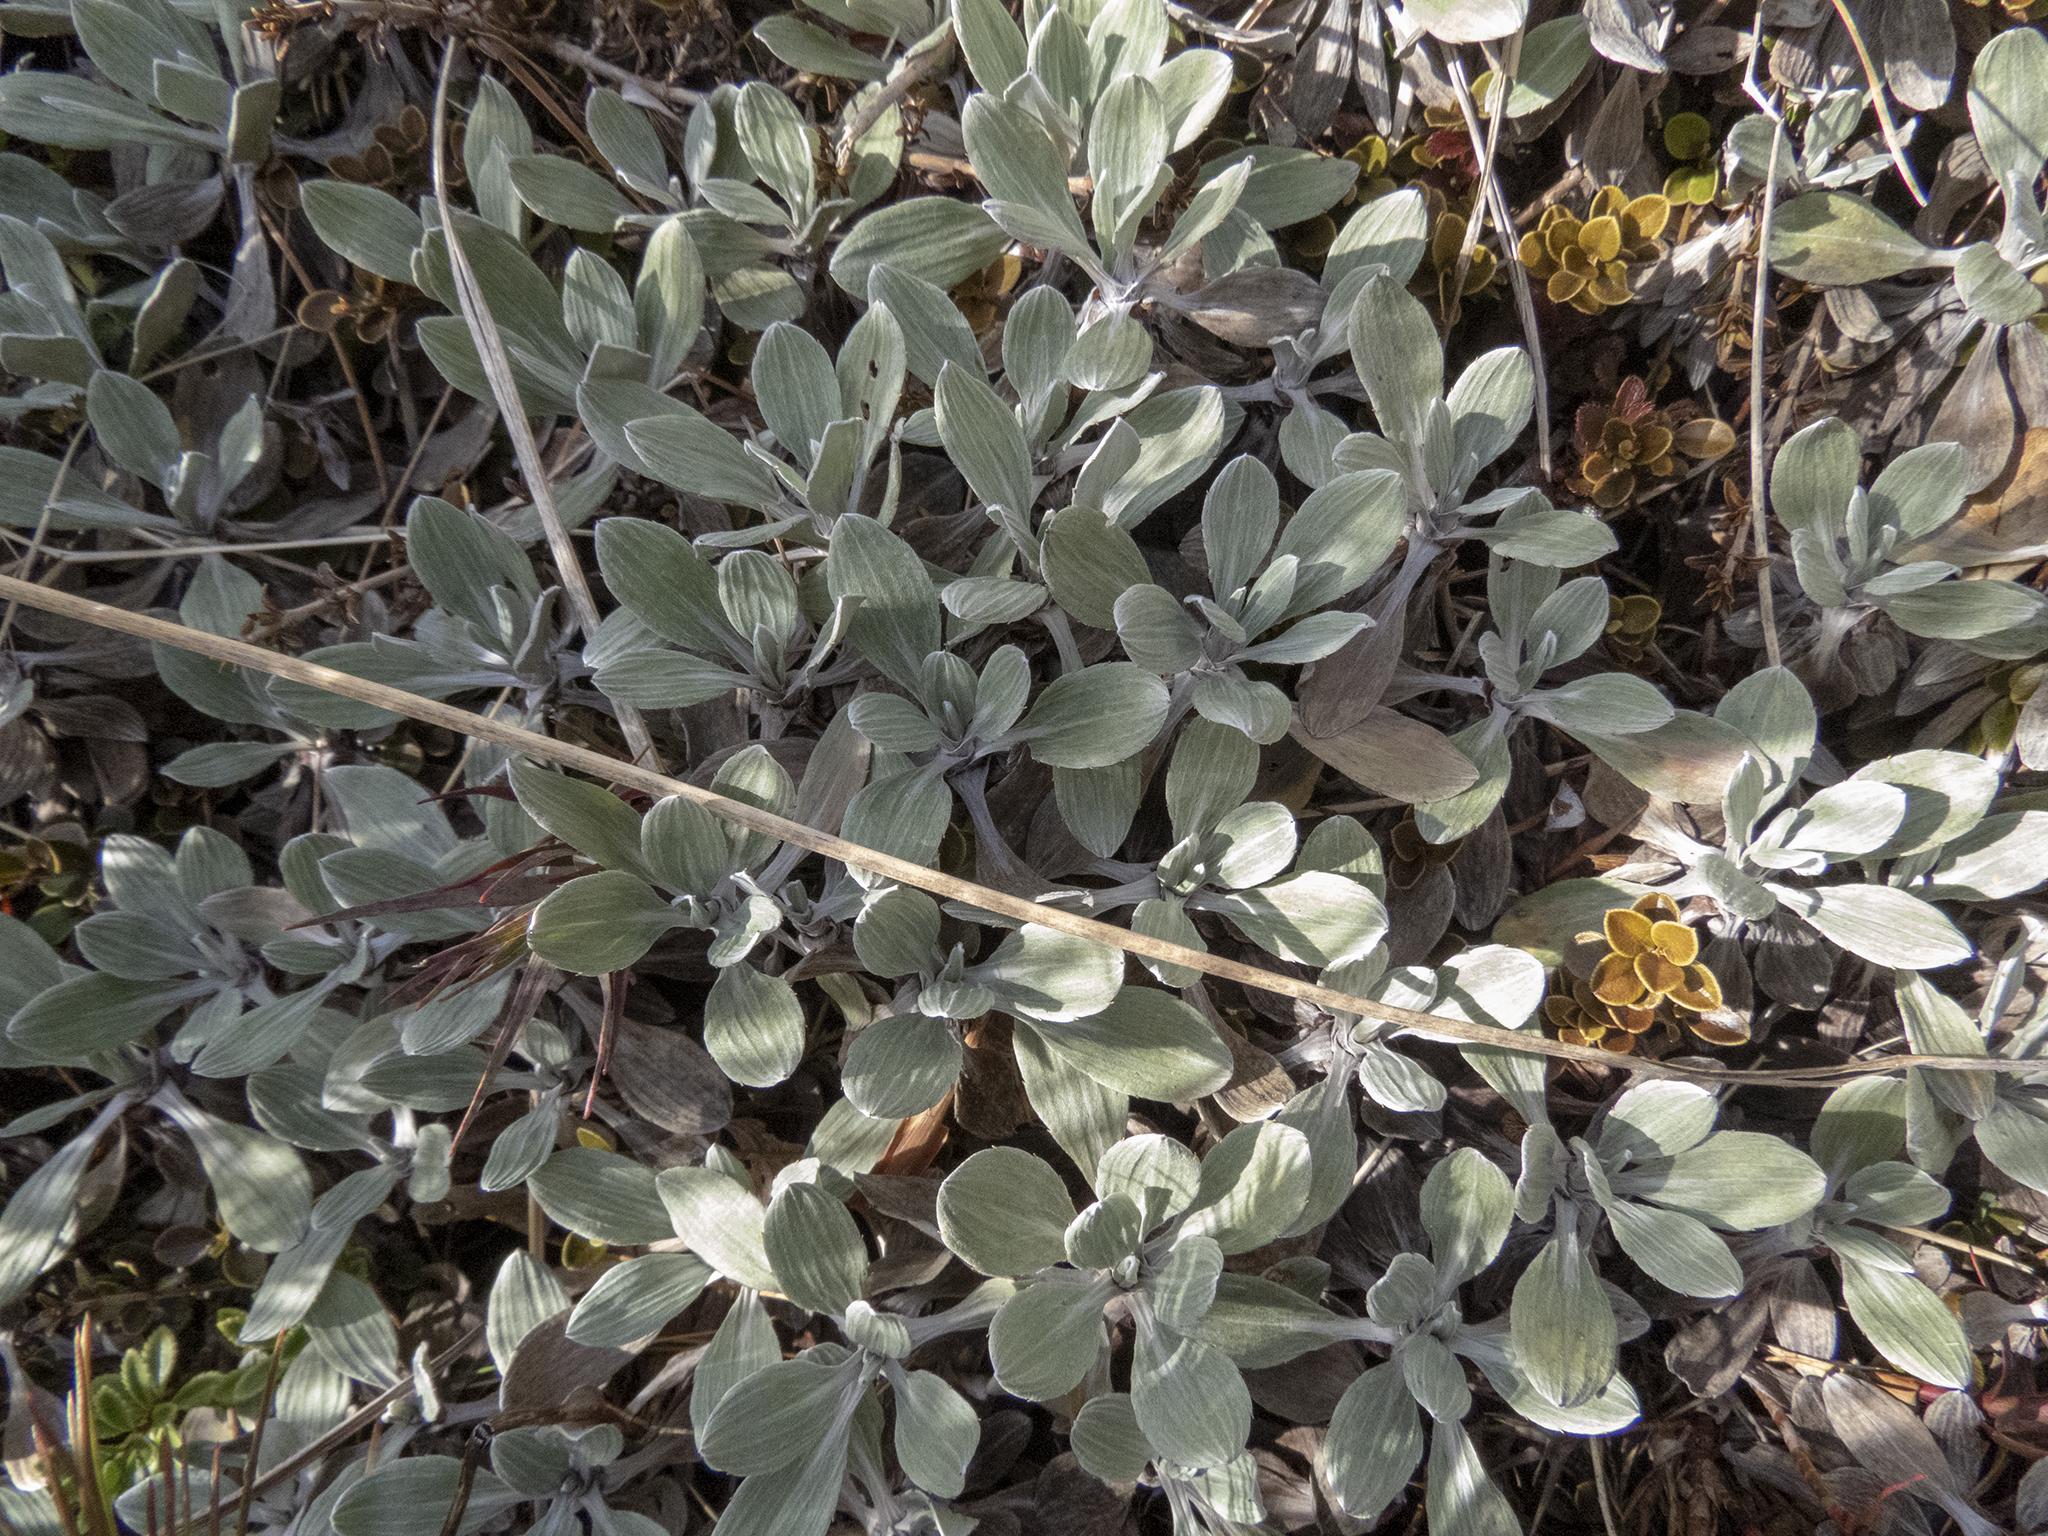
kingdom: Plantae
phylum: Tracheophyta
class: Magnoliopsida
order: Asterales
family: Asteraceae
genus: Celmisia
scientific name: Celmisia discolor
